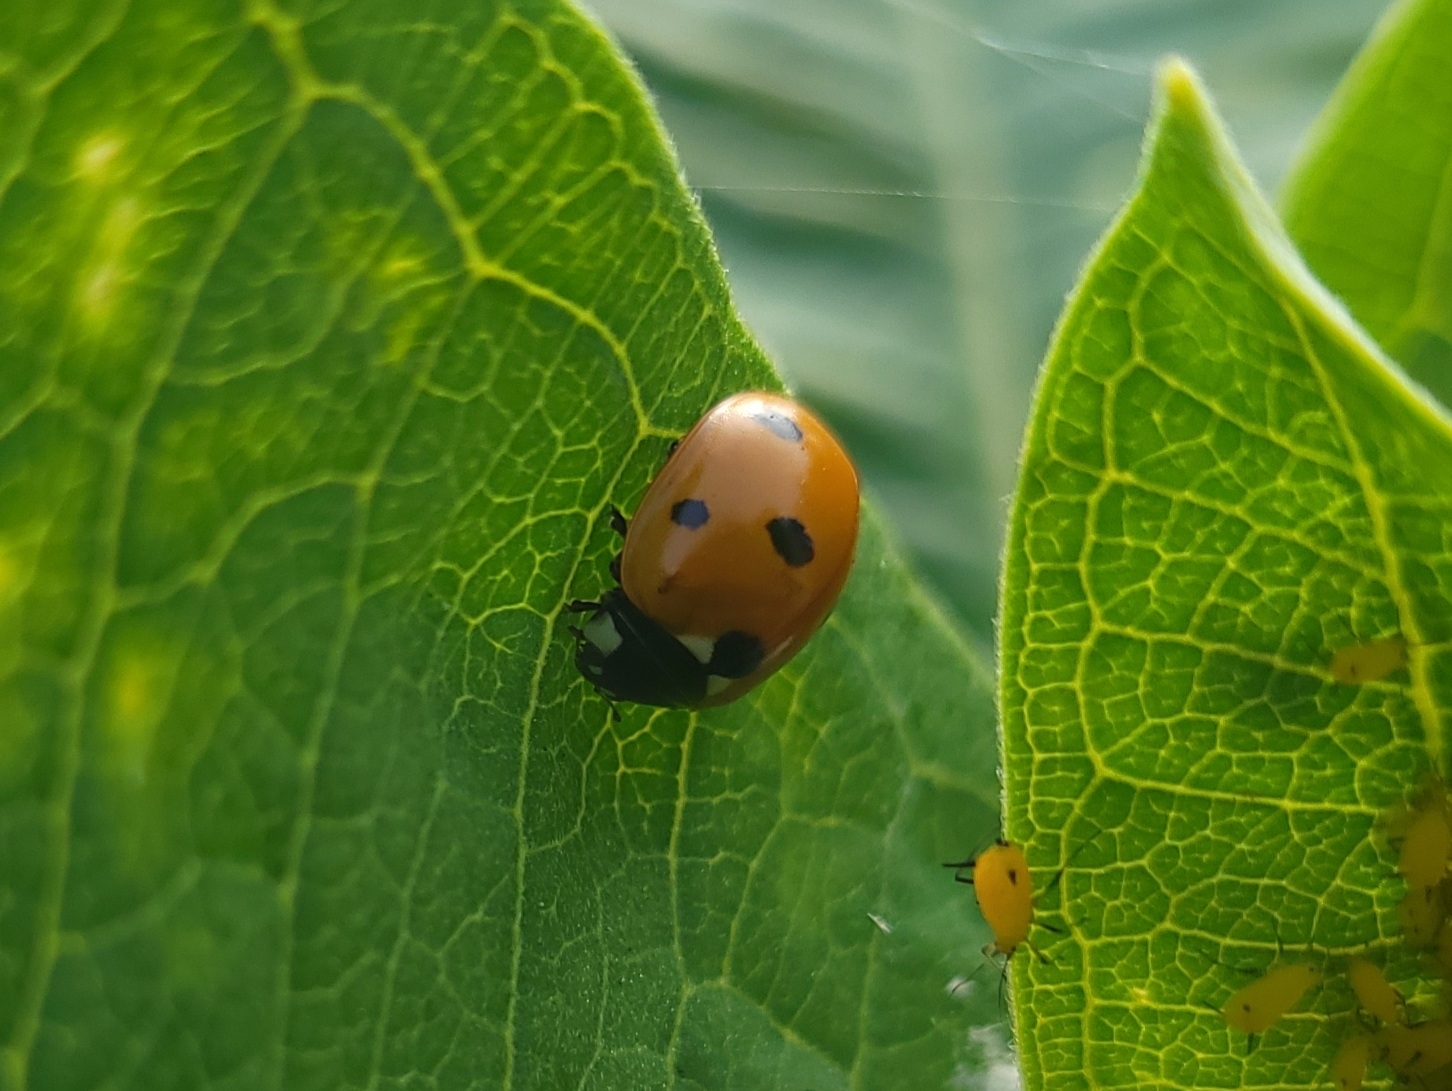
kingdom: Animalia
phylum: Arthropoda
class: Insecta
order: Coleoptera
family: Coccinellidae
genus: Coccinella
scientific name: Coccinella septempunctata
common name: Sevenspotted lady beetle
